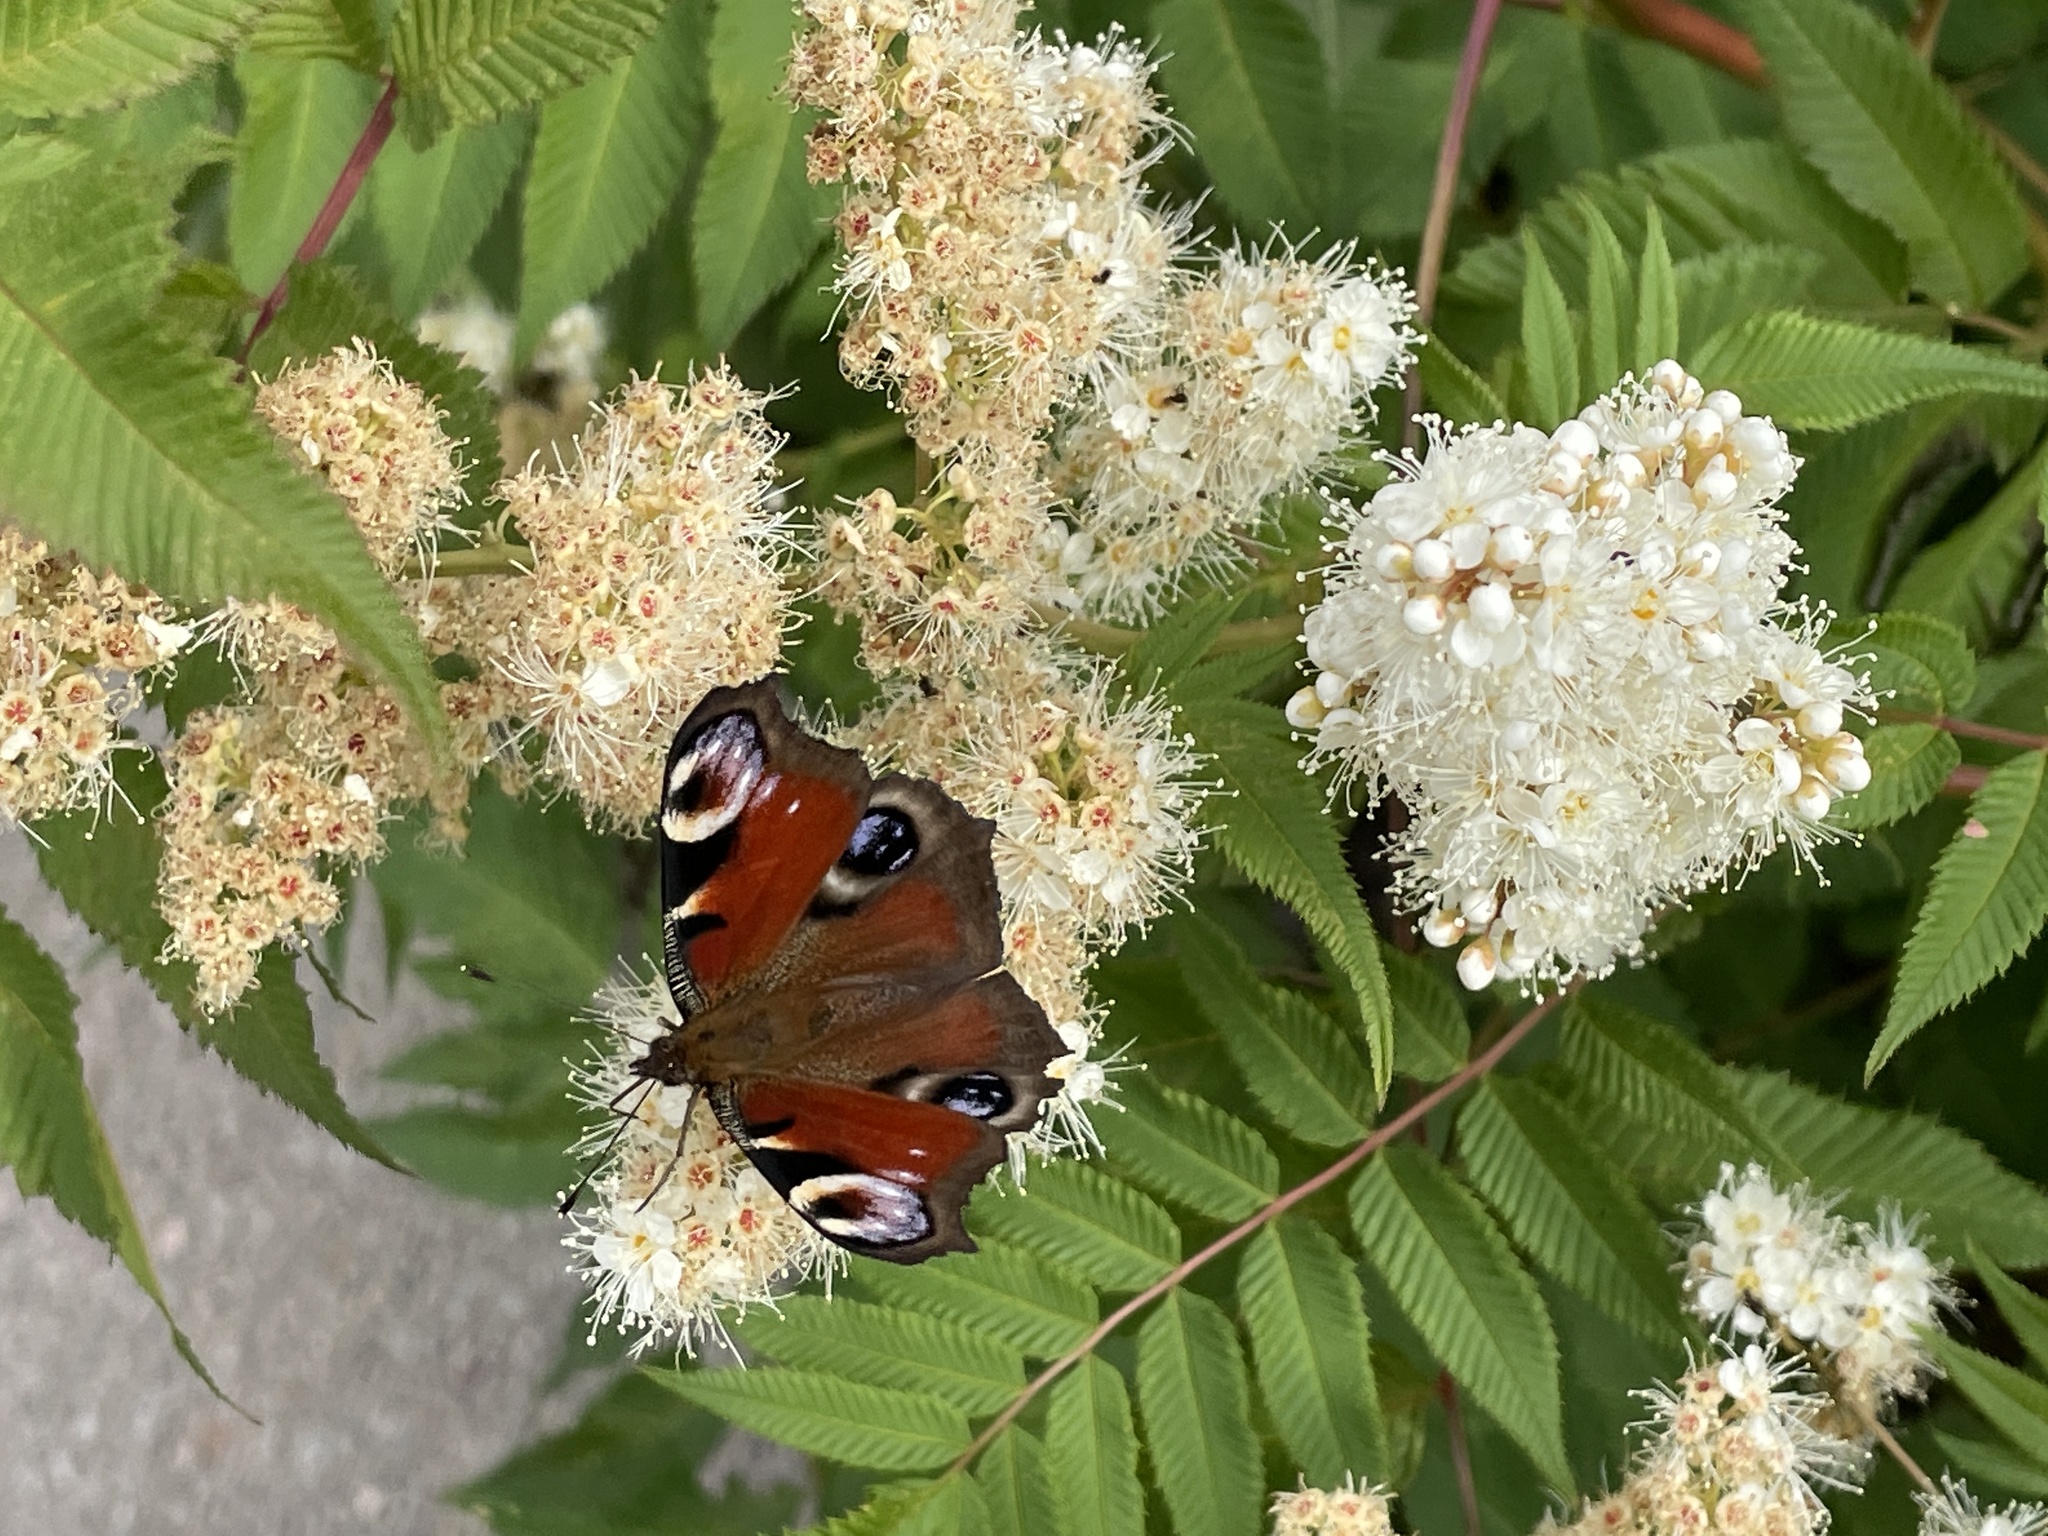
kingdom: Animalia
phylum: Arthropoda
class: Insecta
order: Lepidoptera
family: Nymphalidae
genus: Aglais
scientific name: Aglais io
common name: Peacock
